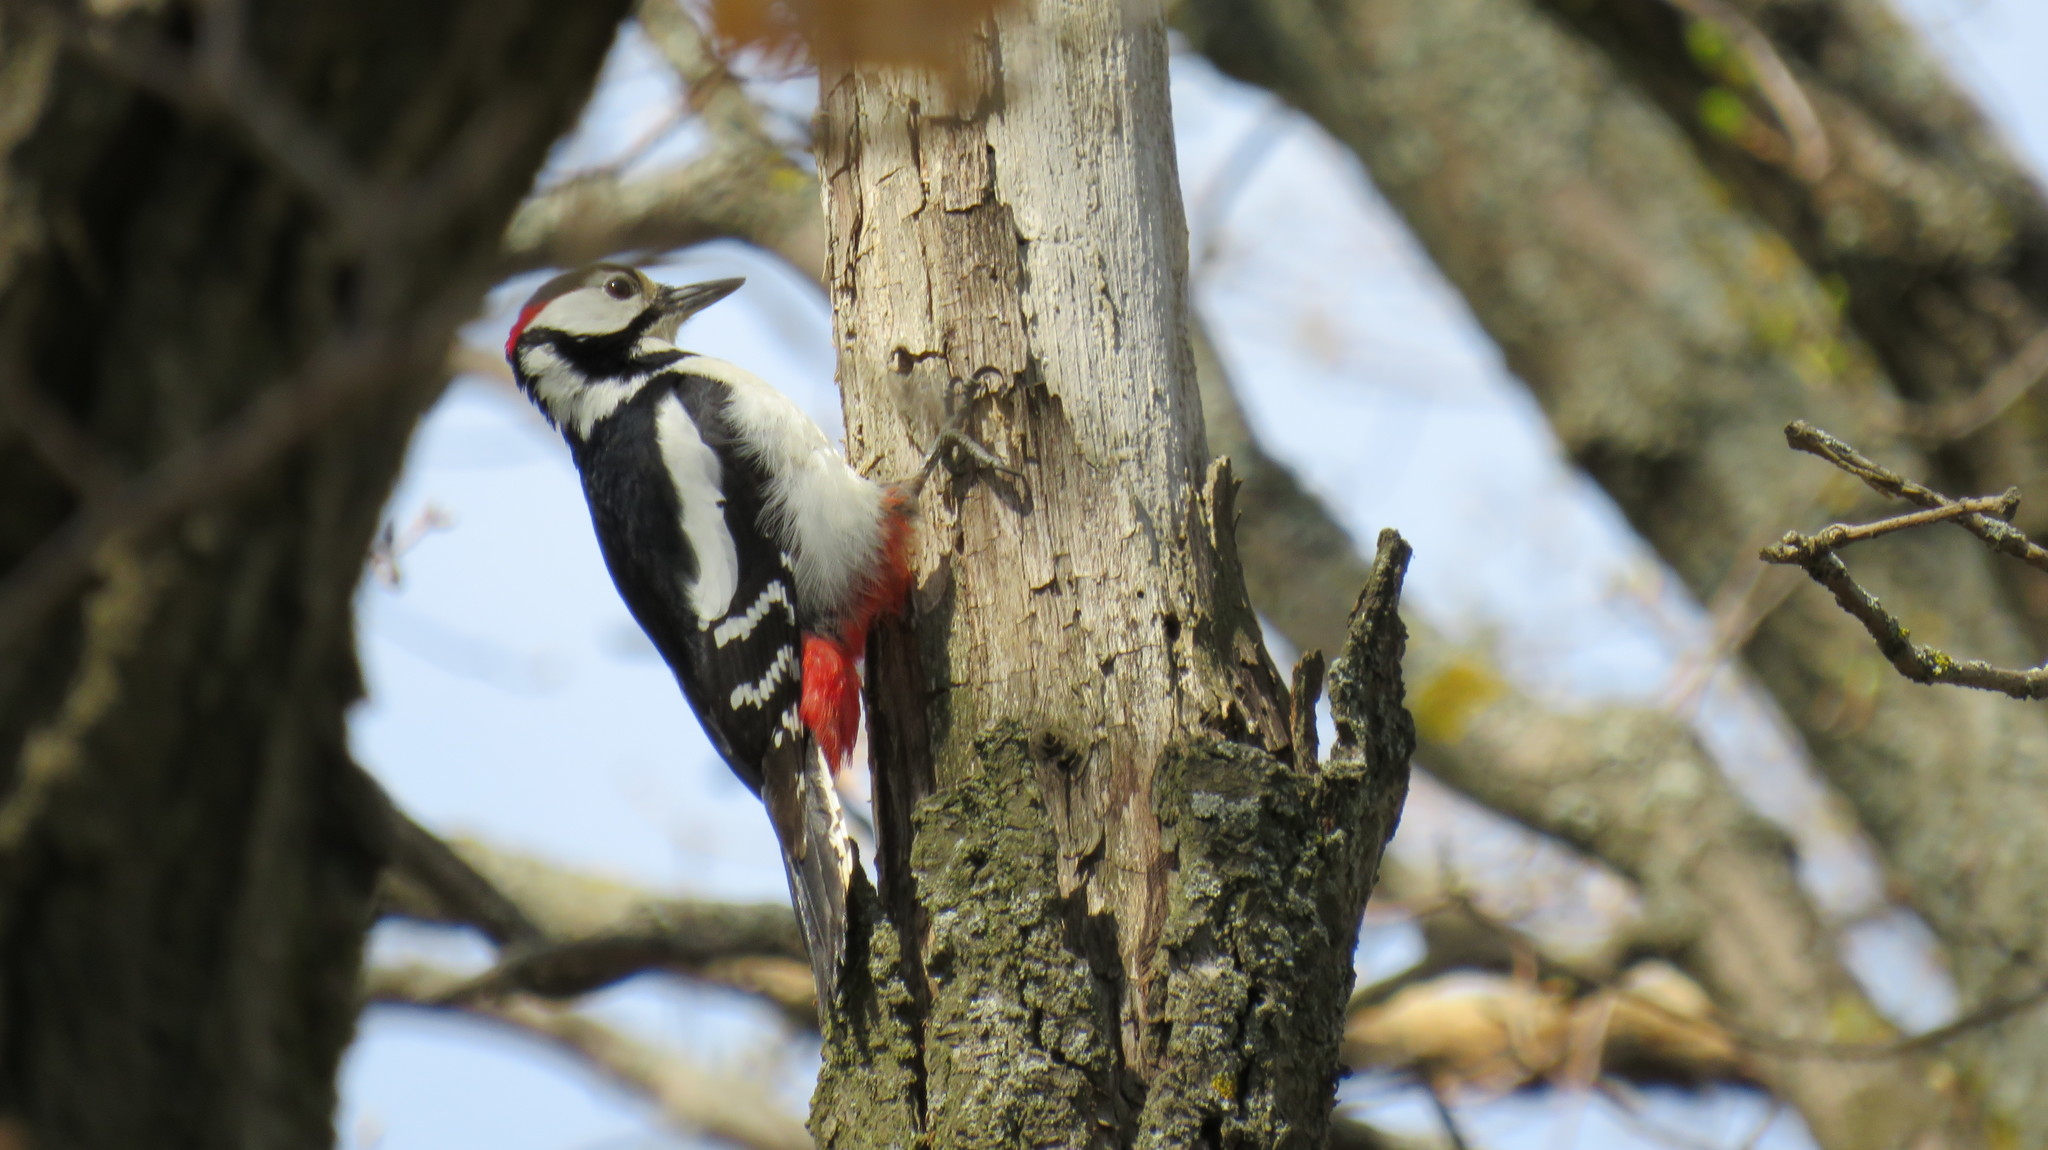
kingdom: Animalia
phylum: Chordata
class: Aves
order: Piciformes
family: Picidae
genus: Dendrocopos
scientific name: Dendrocopos major
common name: Great spotted woodpecker
